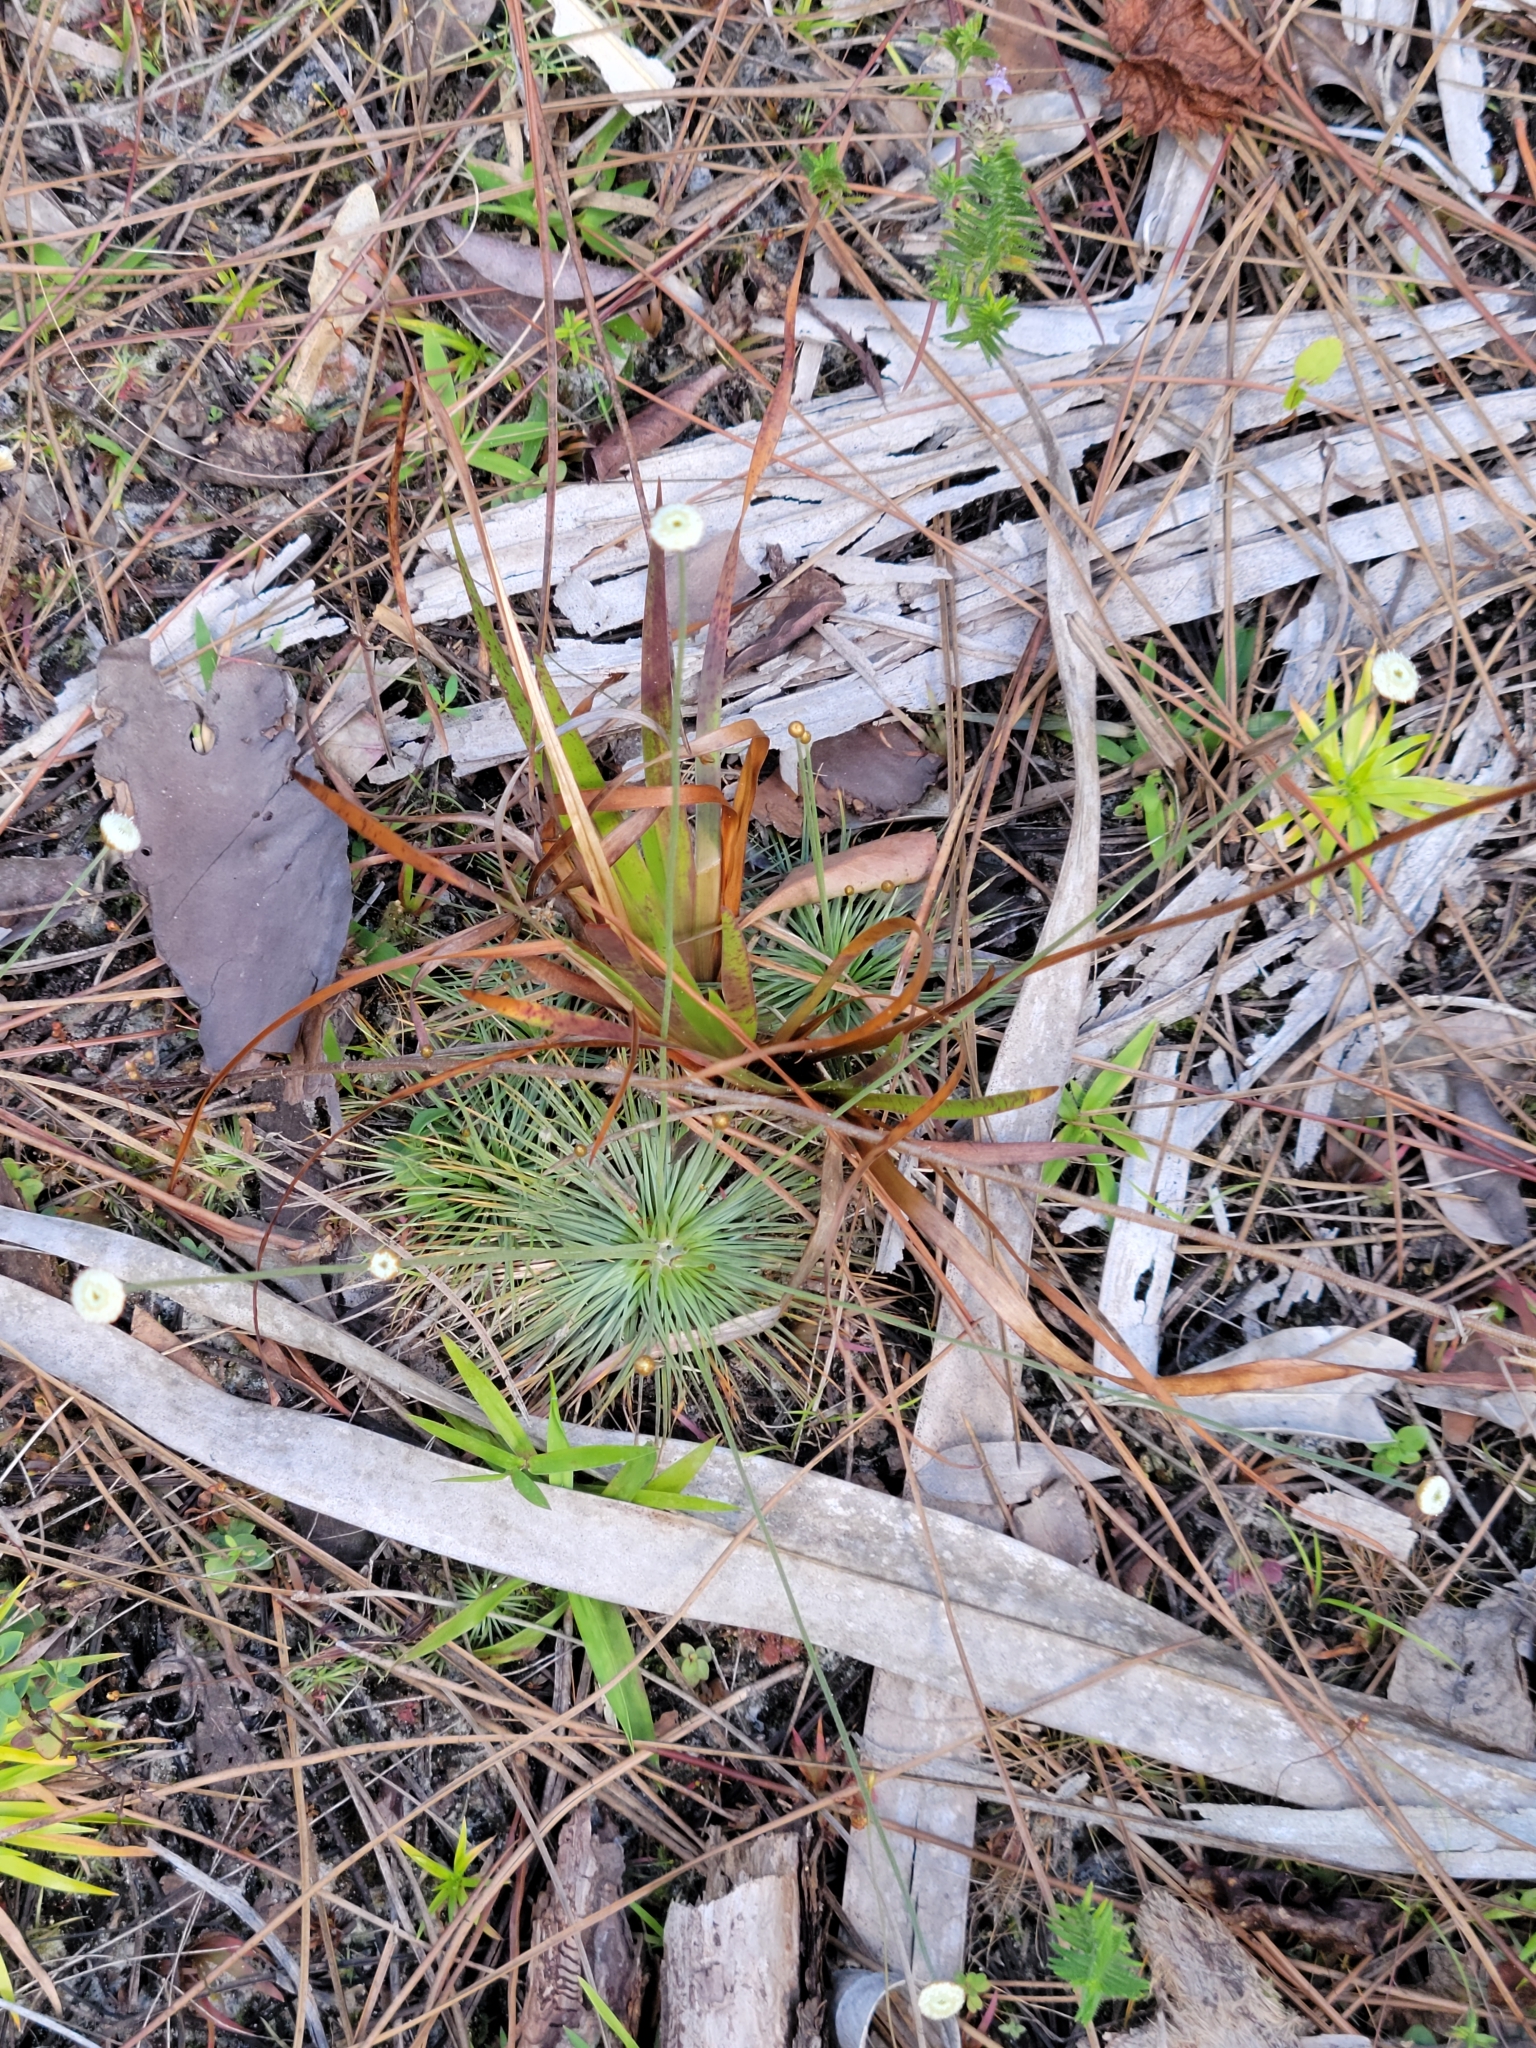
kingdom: Plantae
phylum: Tracheophyta
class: Liliopsida
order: Poales
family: Eriocaulaceae
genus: Syngonanthus
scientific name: Syngonanthus flavidulus
